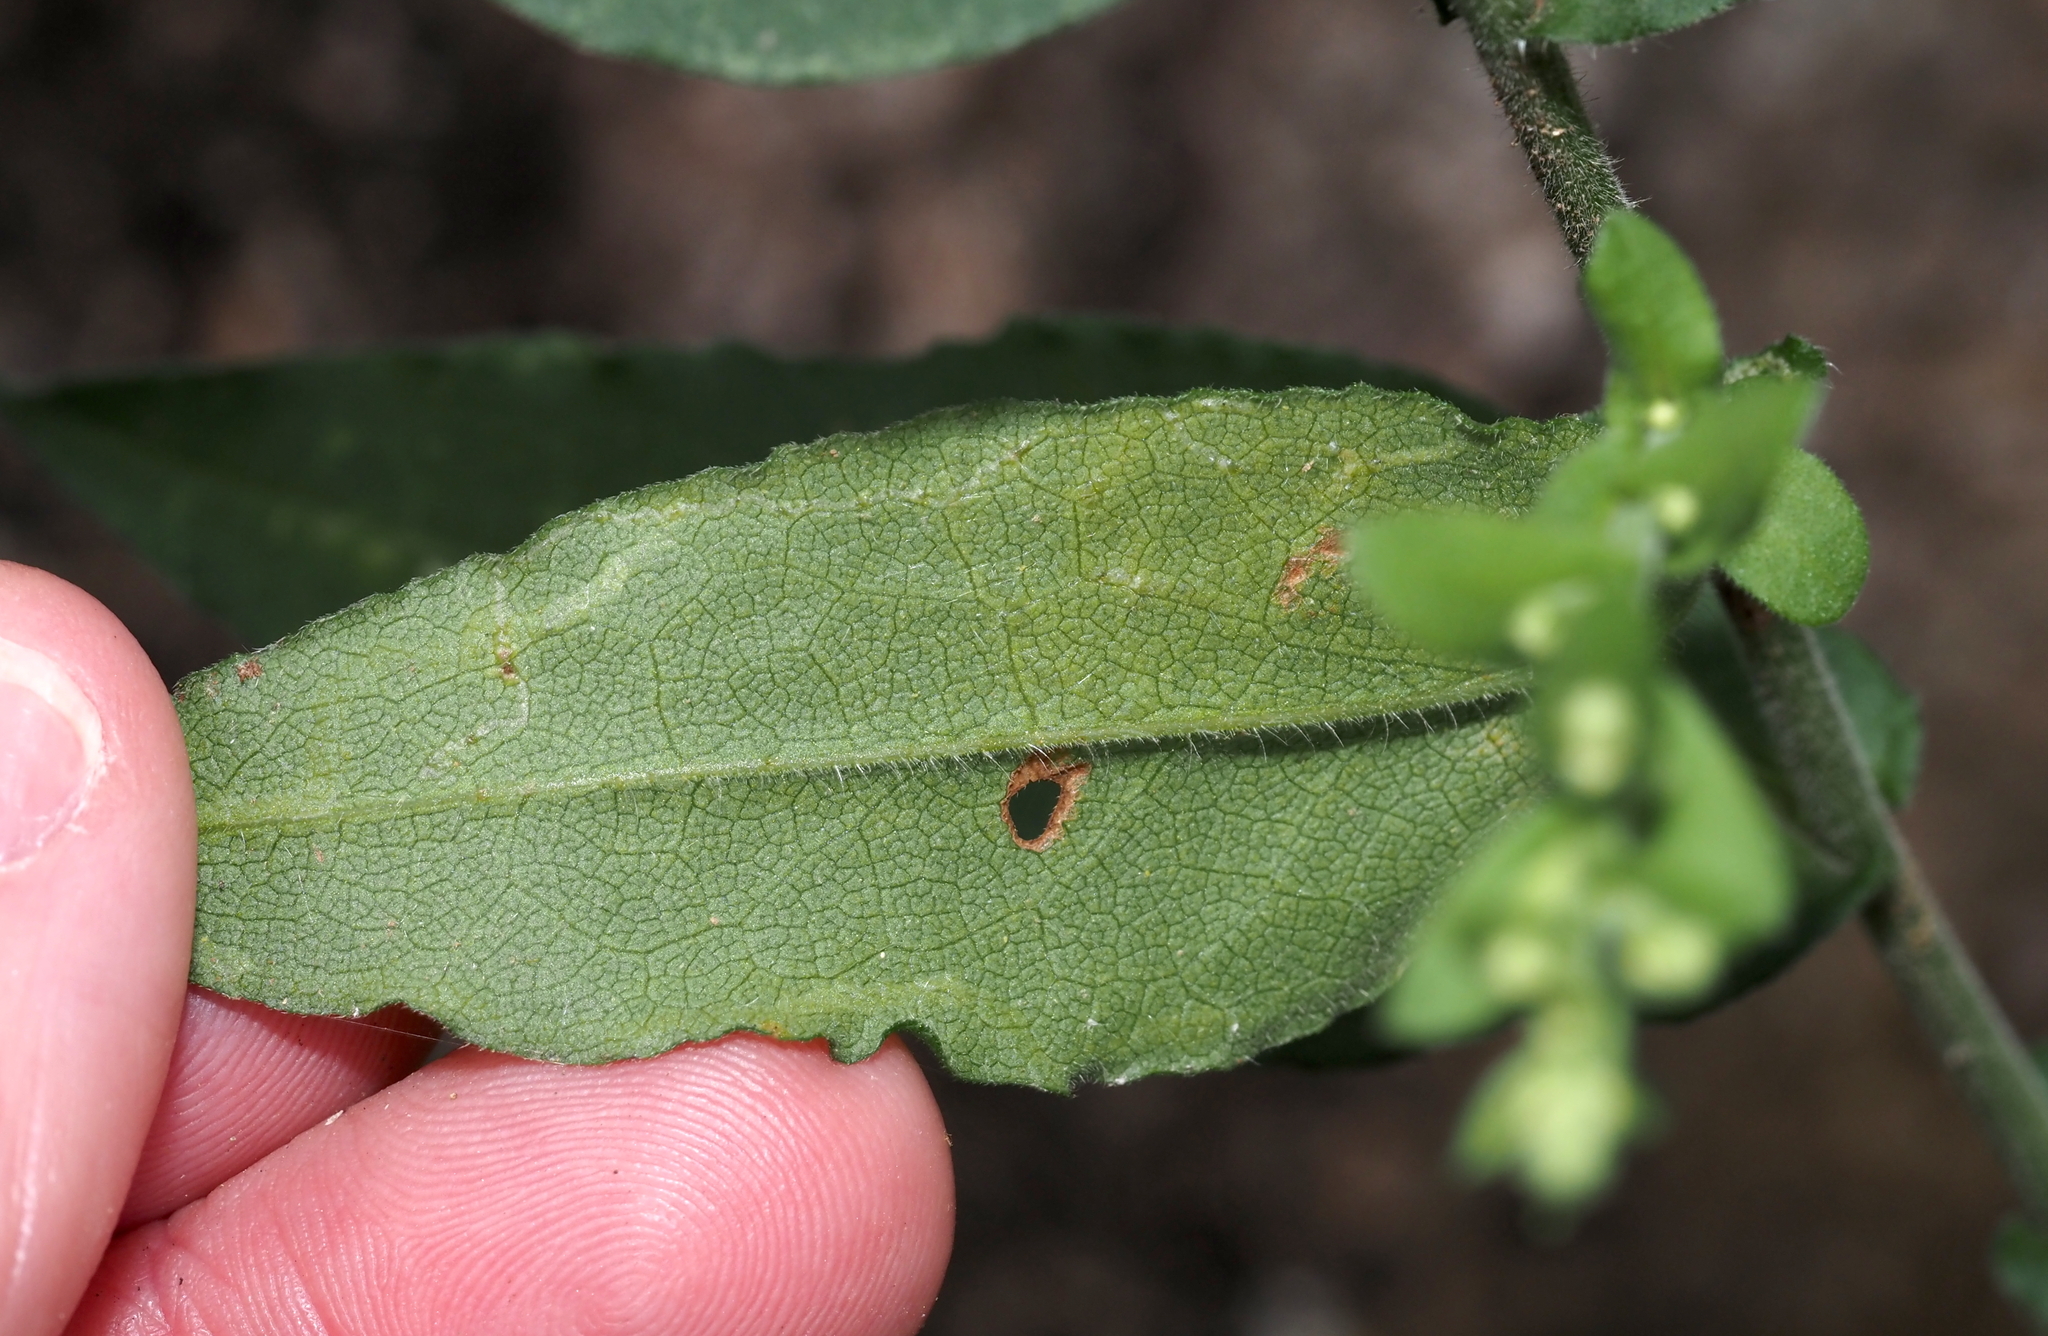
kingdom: Animalia
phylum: Arthropoda
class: Insecta
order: Diptera
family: Agromyzidae
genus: Ophiomyia
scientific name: Ophiomyia asterovora
